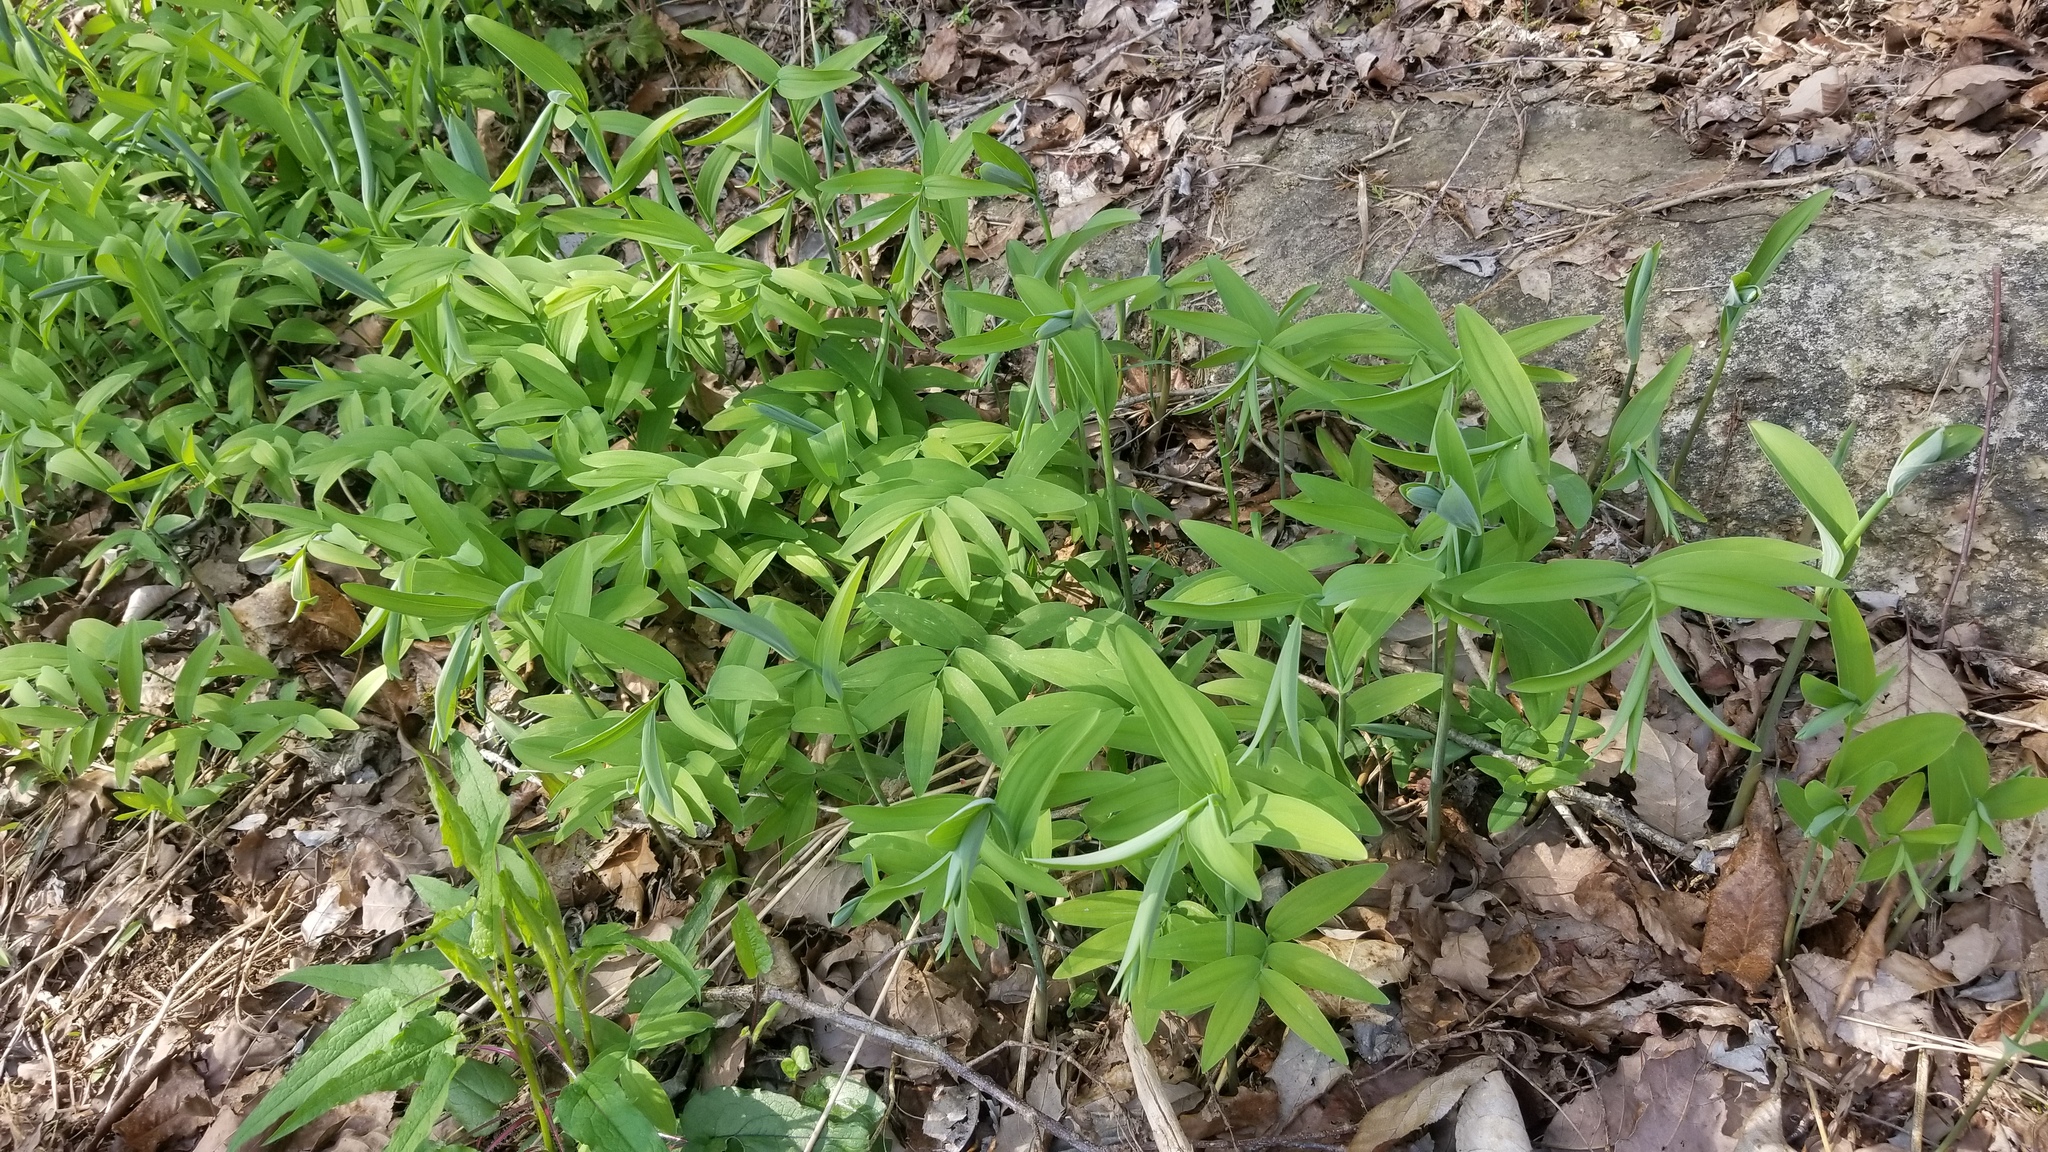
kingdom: Plantae
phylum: Tracheophyta
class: Liliopsida
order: Asparagales
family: Asparagaceae
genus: Polygonatum
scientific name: Polygonatum biflorum
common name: American solomon's-seal
